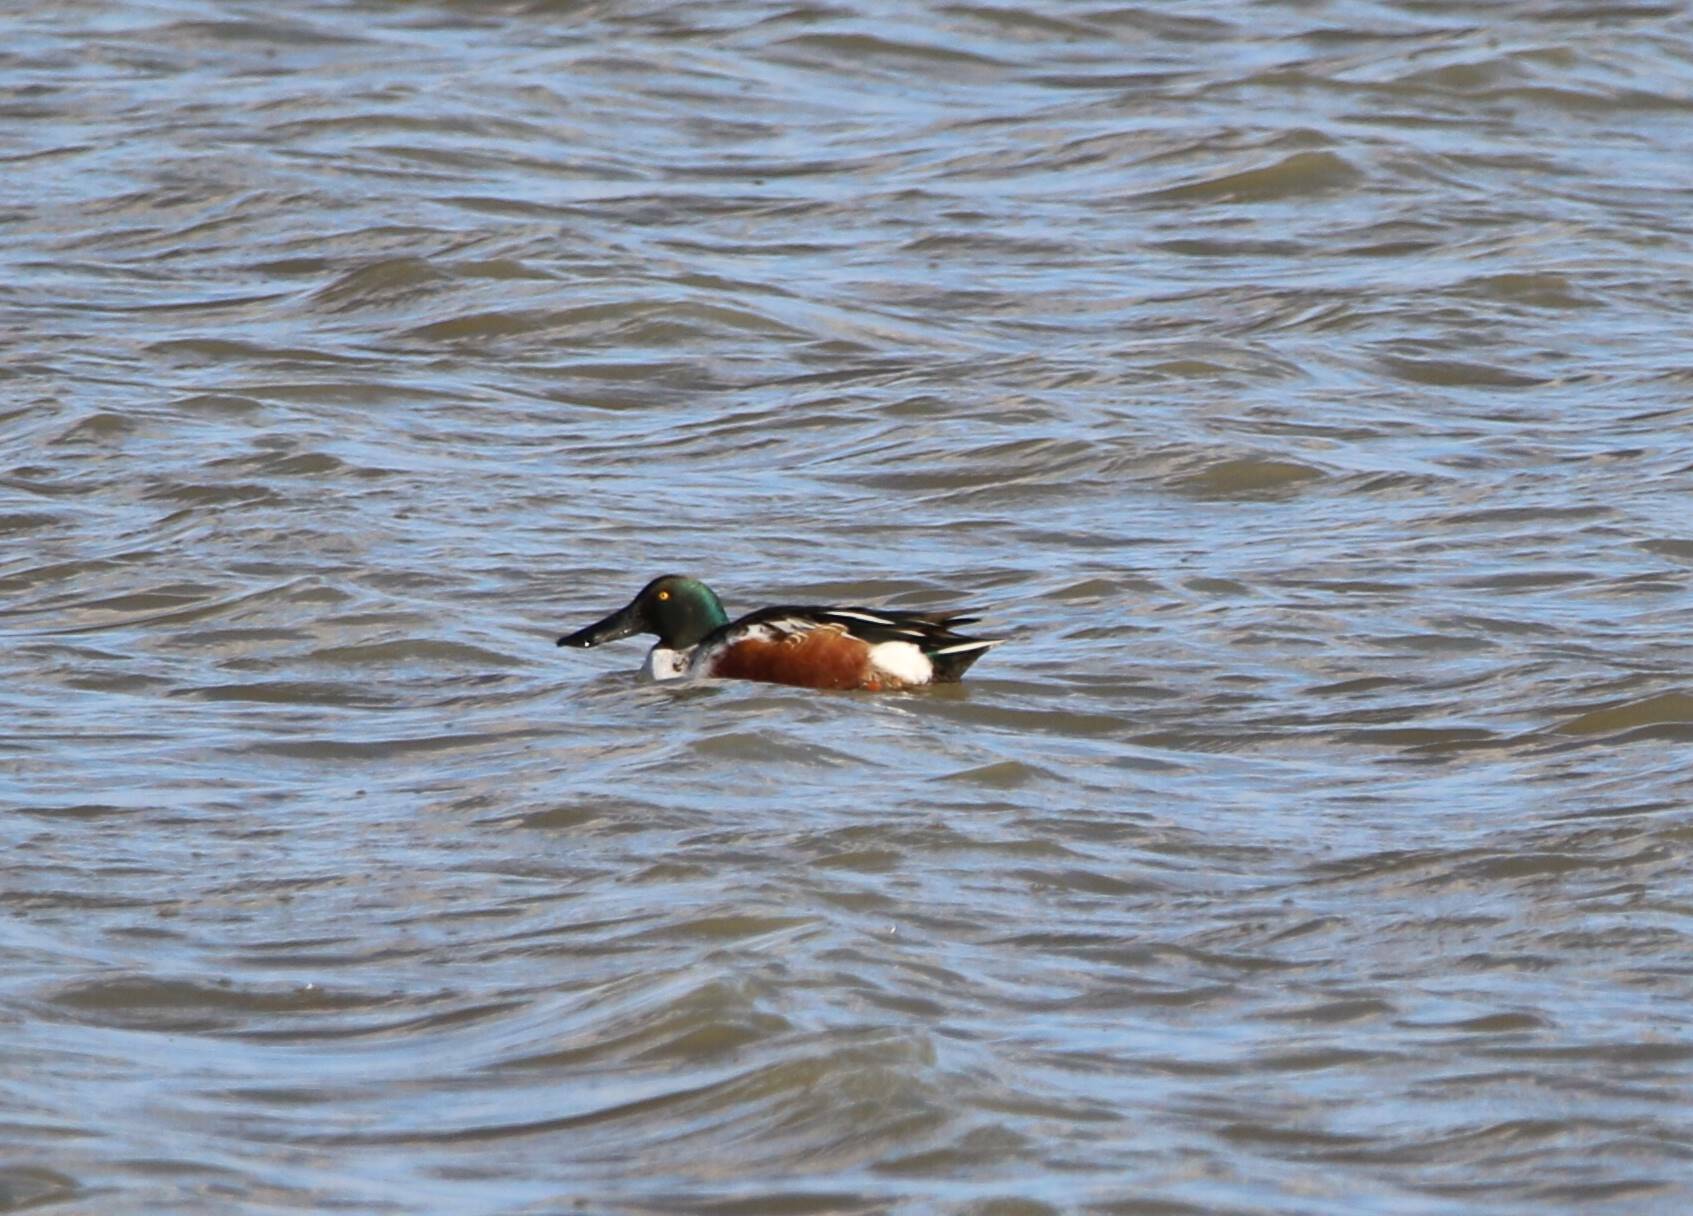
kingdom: Animalia
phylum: Chordata
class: Aves
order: Anseriformes
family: Anatidae
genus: Spatula
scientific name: Spatula clypeata
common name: Northern shoveler
